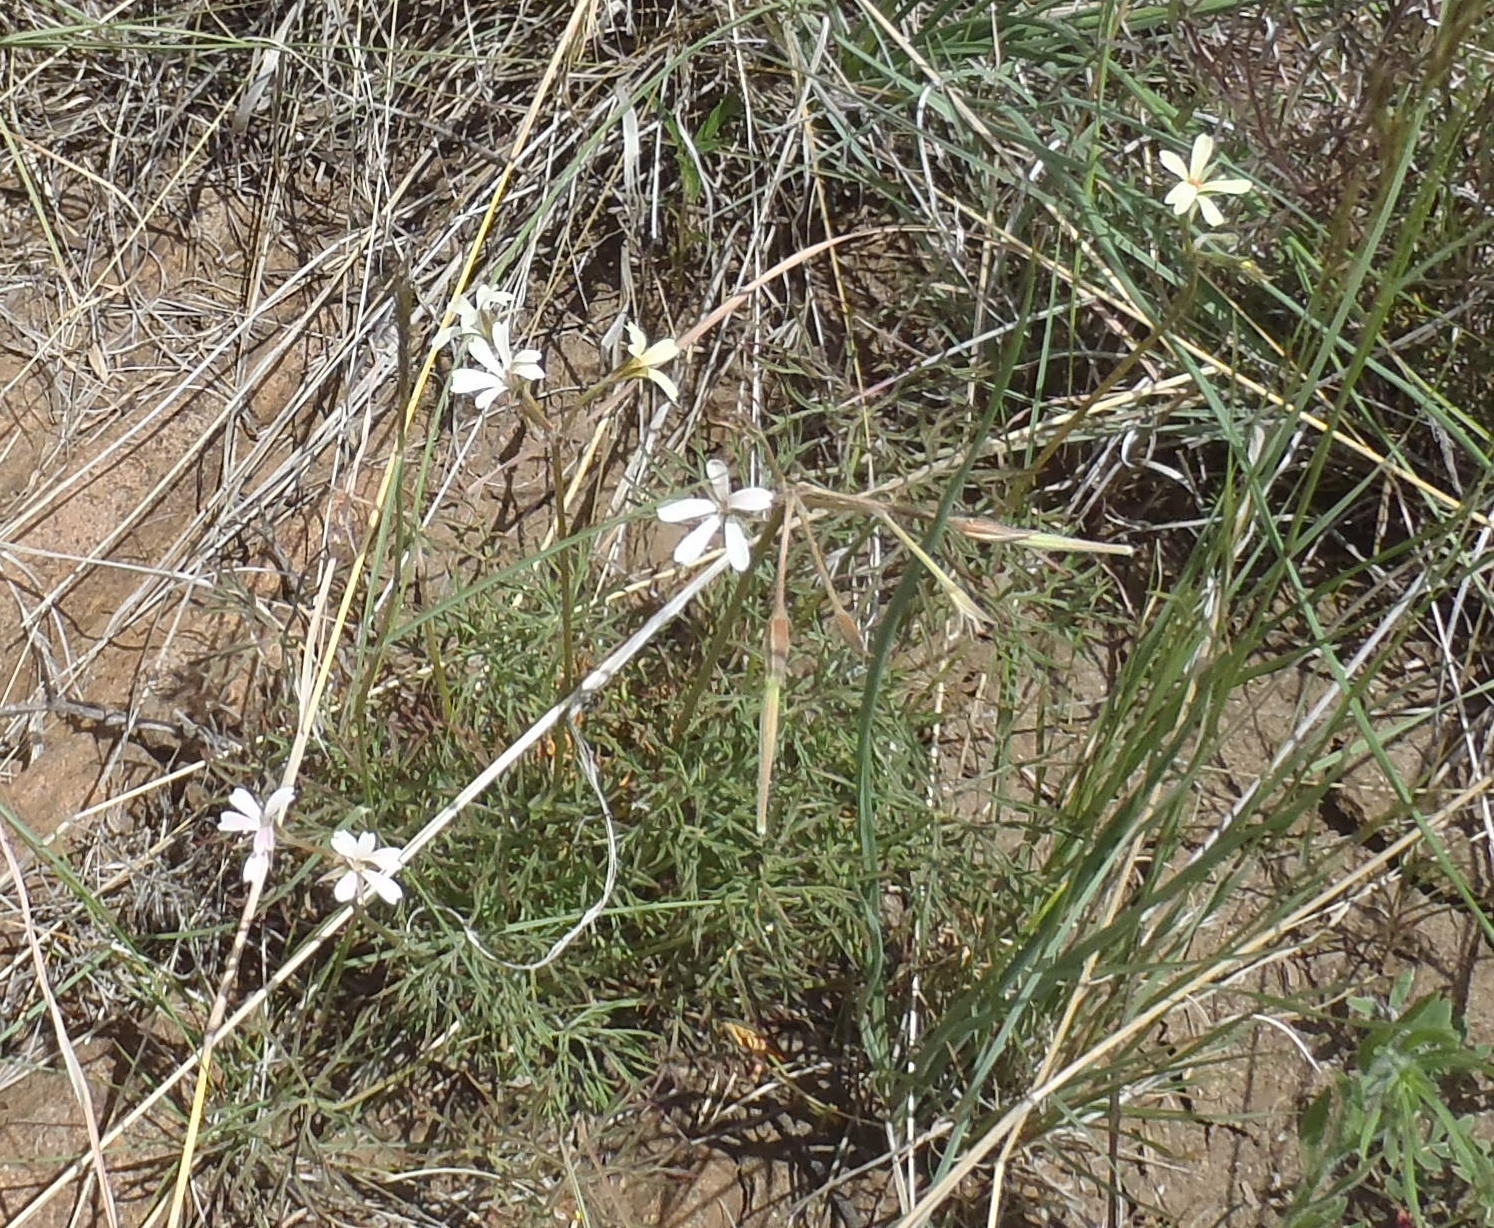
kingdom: Plantae
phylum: Tracheophyta
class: Magnoliopsida
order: Geraniales
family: Geraniaceae
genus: Pelargonium
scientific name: Pelargonium aridum
